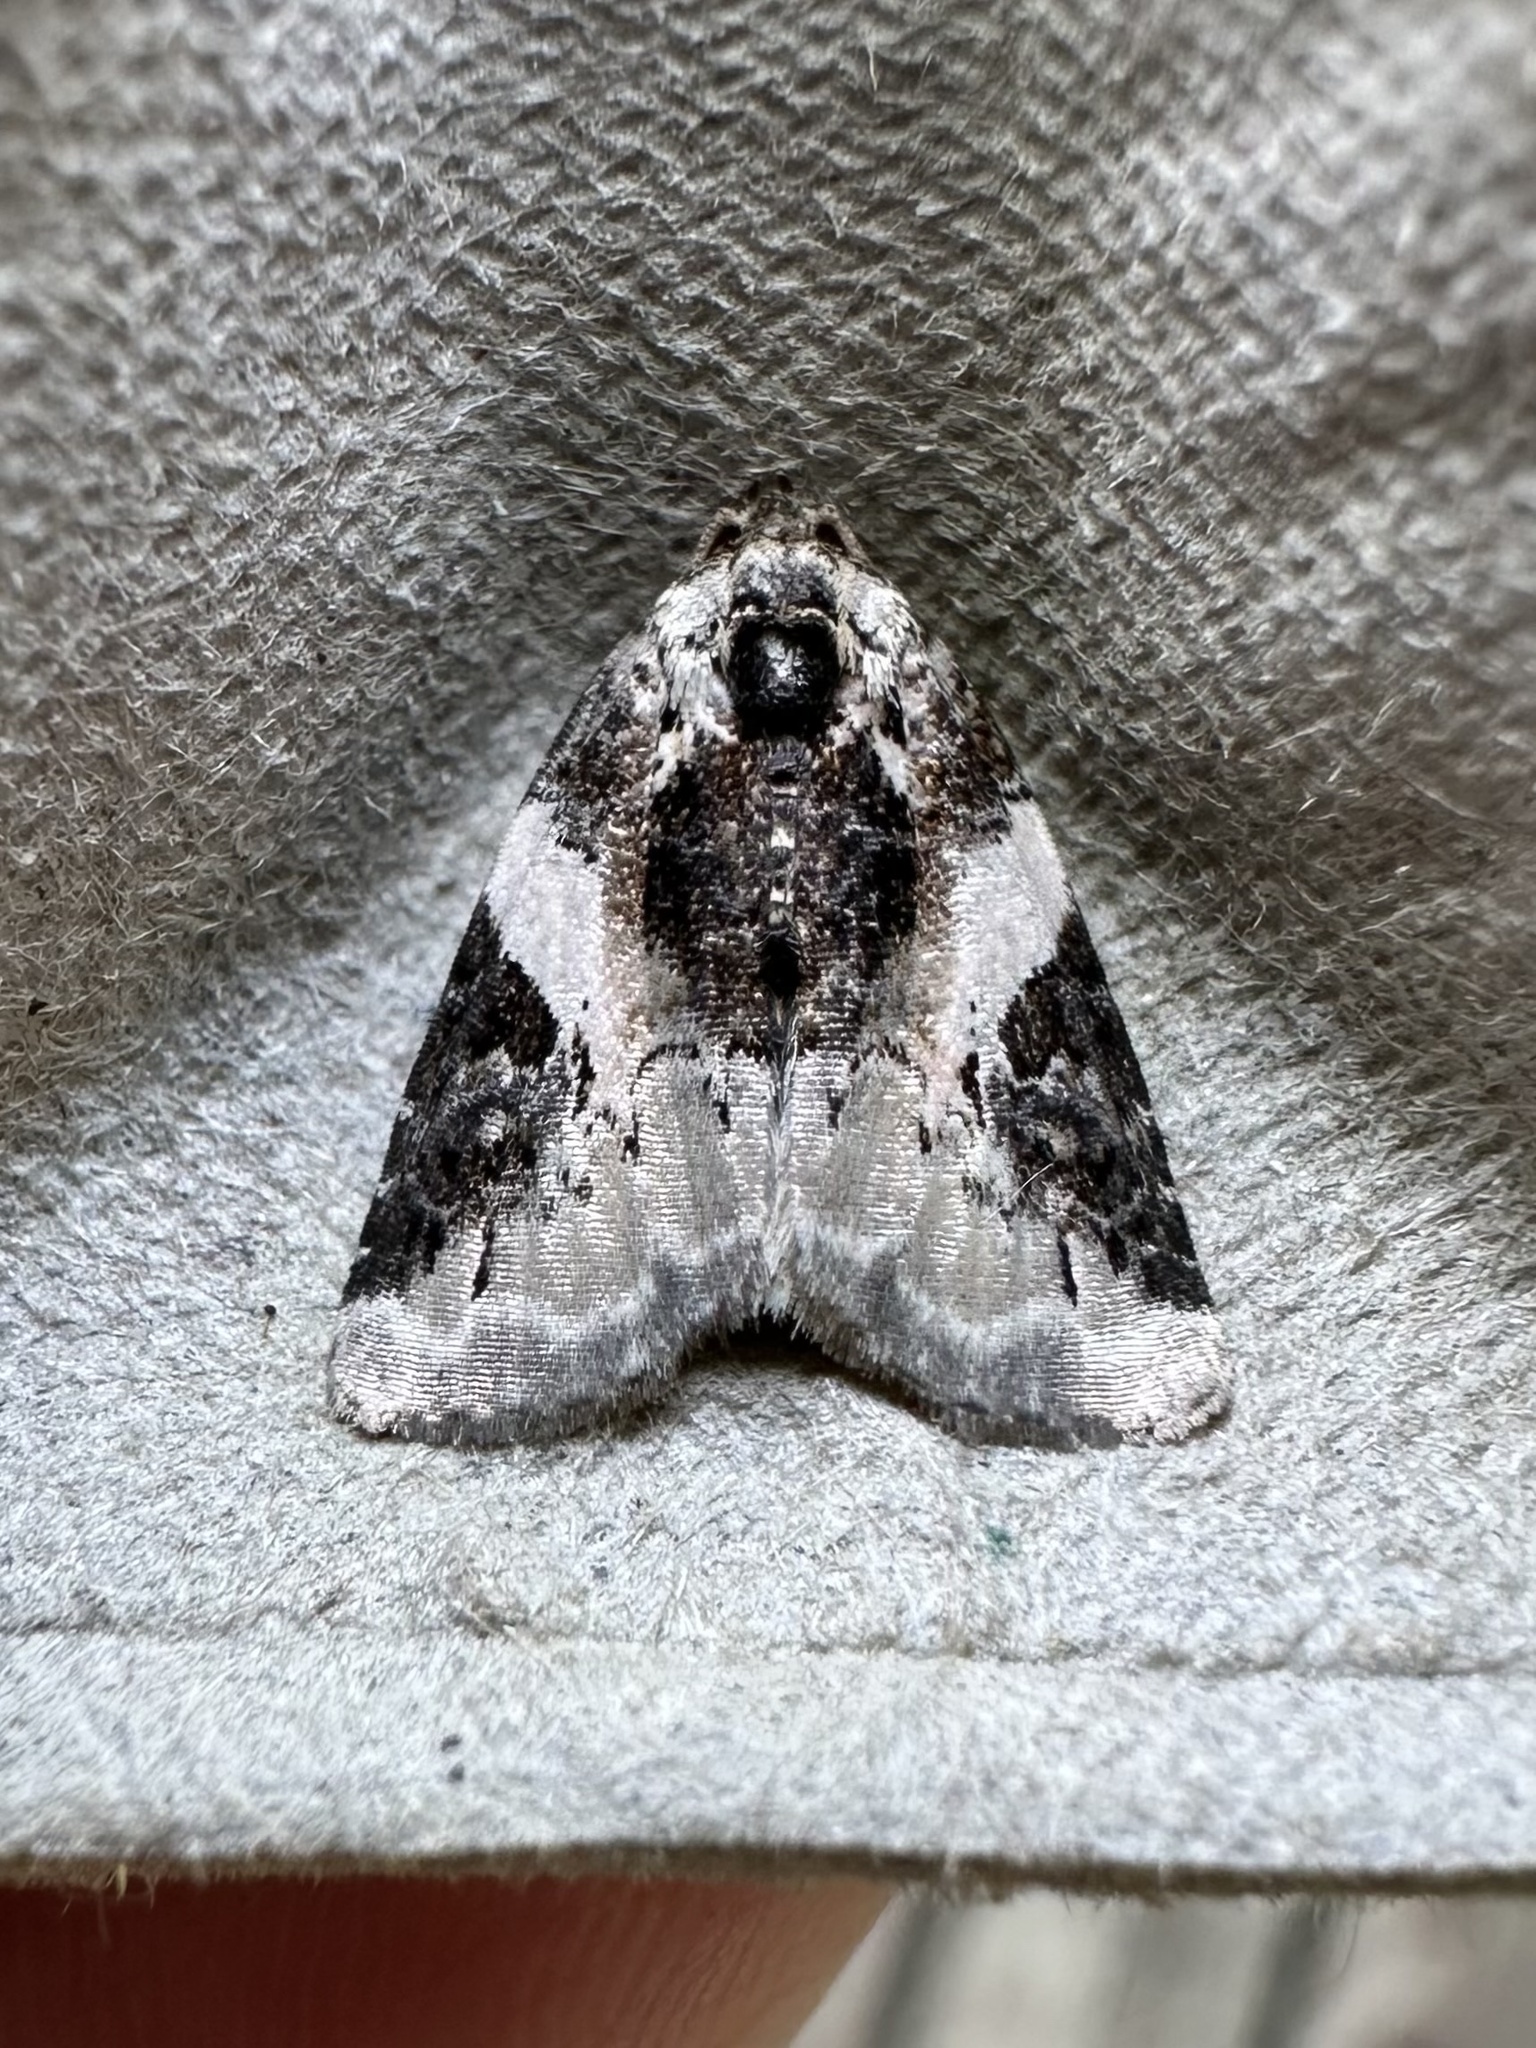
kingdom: Animalia
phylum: Arthropoda
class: Insecta
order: Lepidoptera
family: Noctuidae
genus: Pseudeustrotia
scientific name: Pseudeustrotia carneola
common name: Pink-barred lithacodia moth
